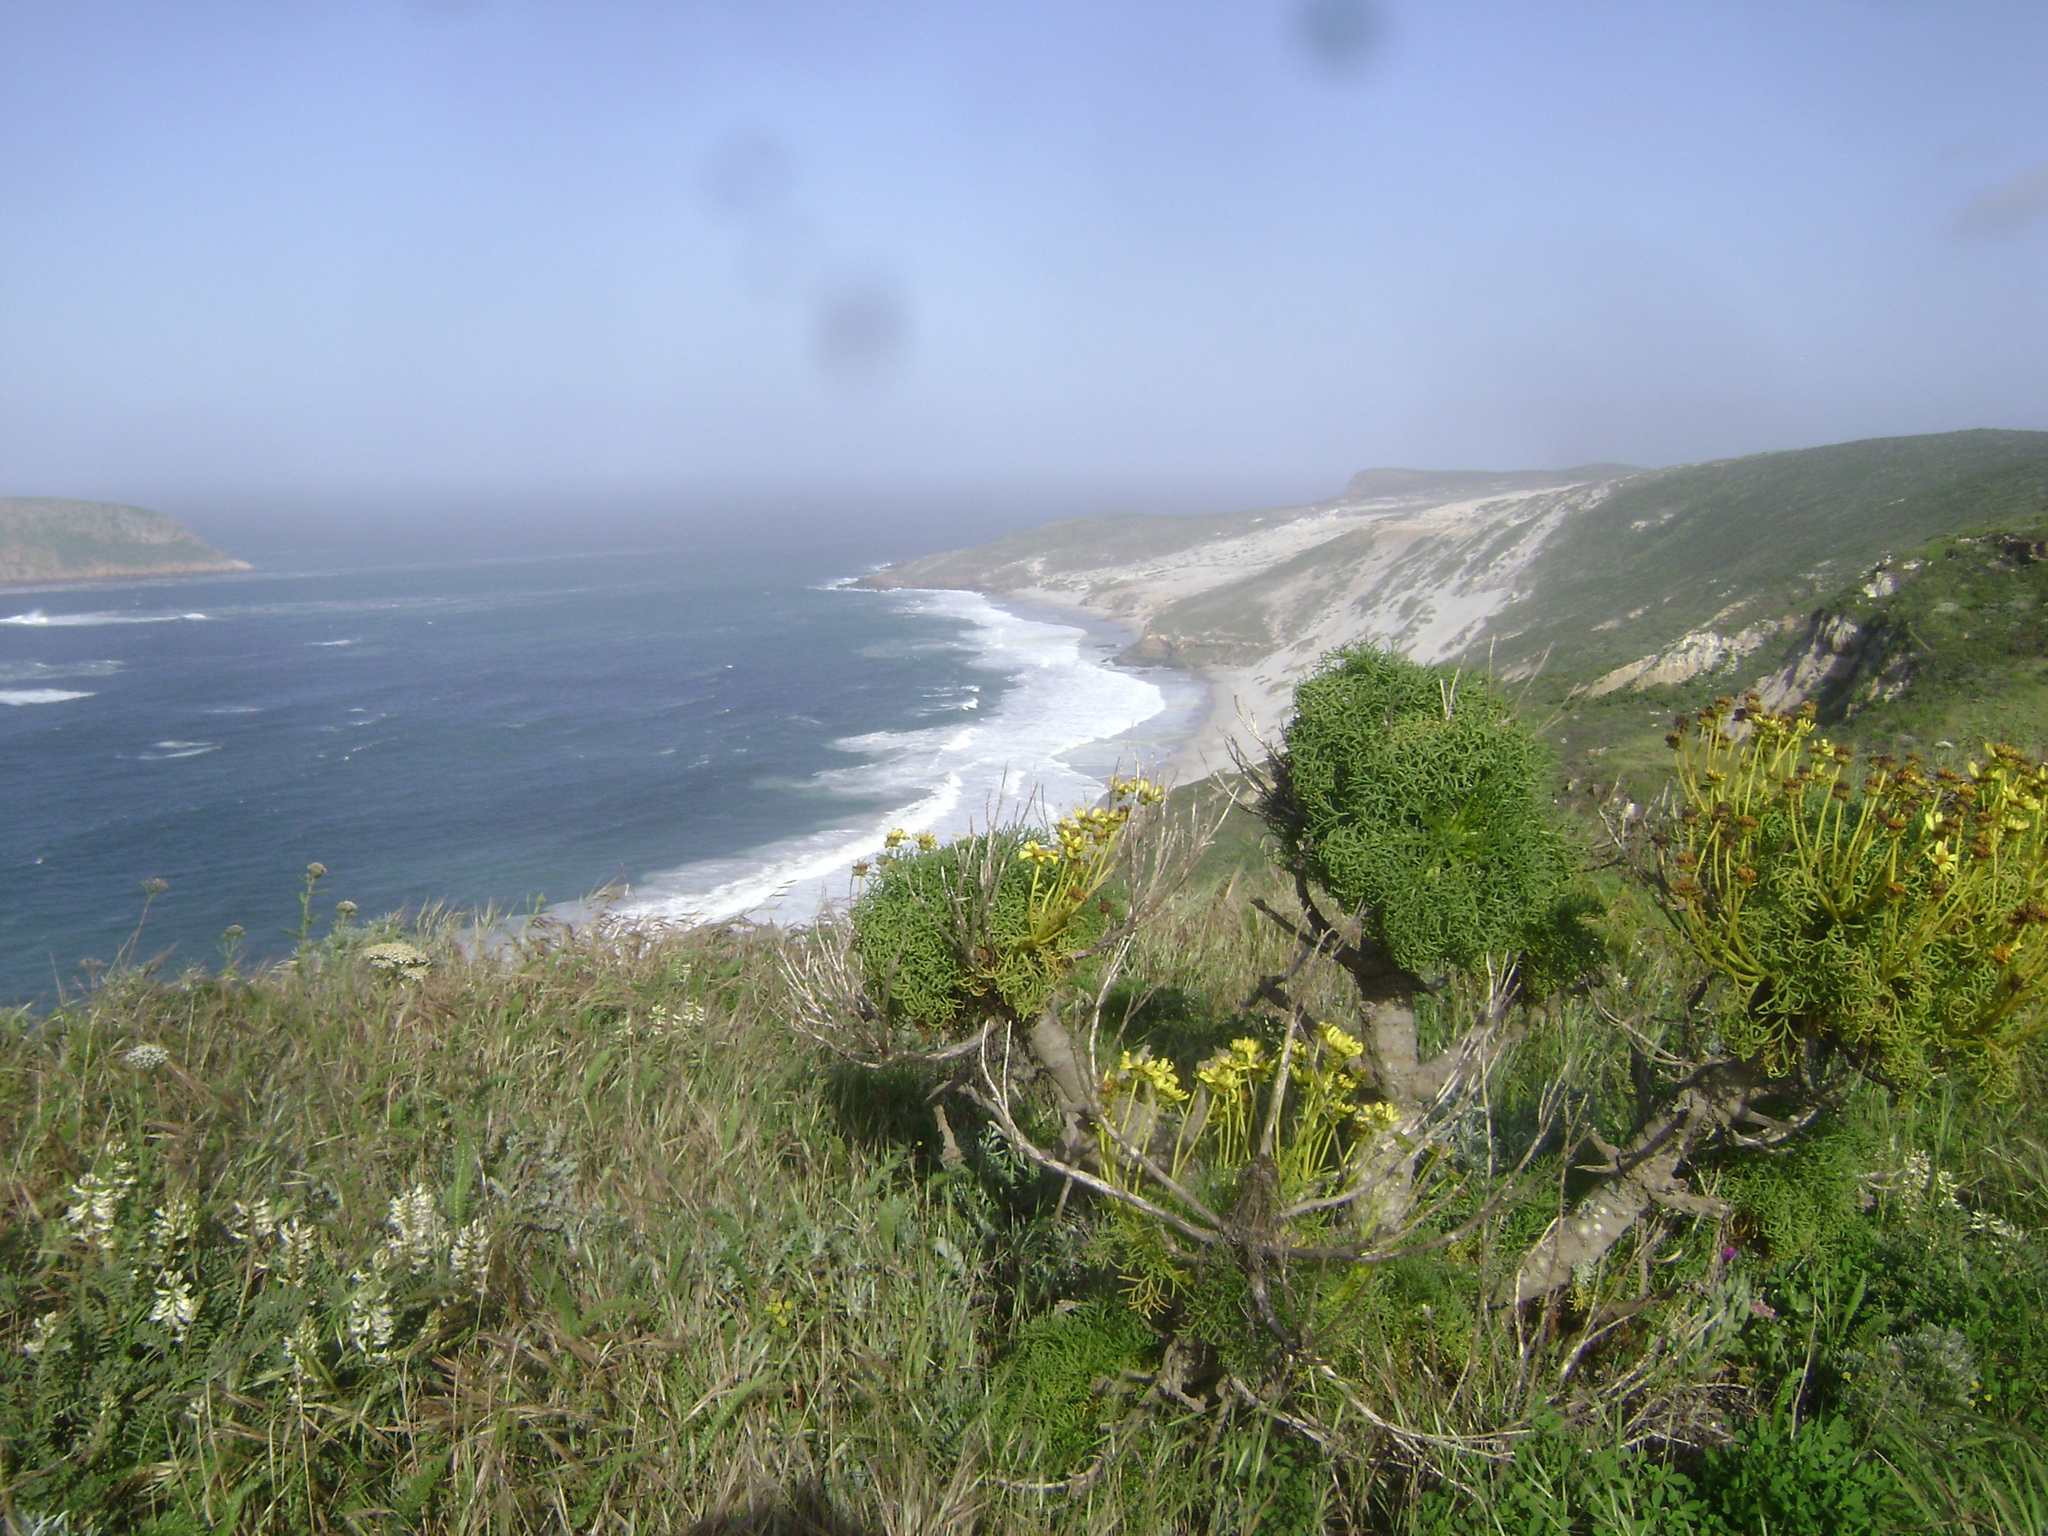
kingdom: Plantae
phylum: Tracheophyta
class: Magnoliopsida
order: Asterales
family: Asteraceae
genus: Coreopsis
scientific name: Coreopsis gigantea
